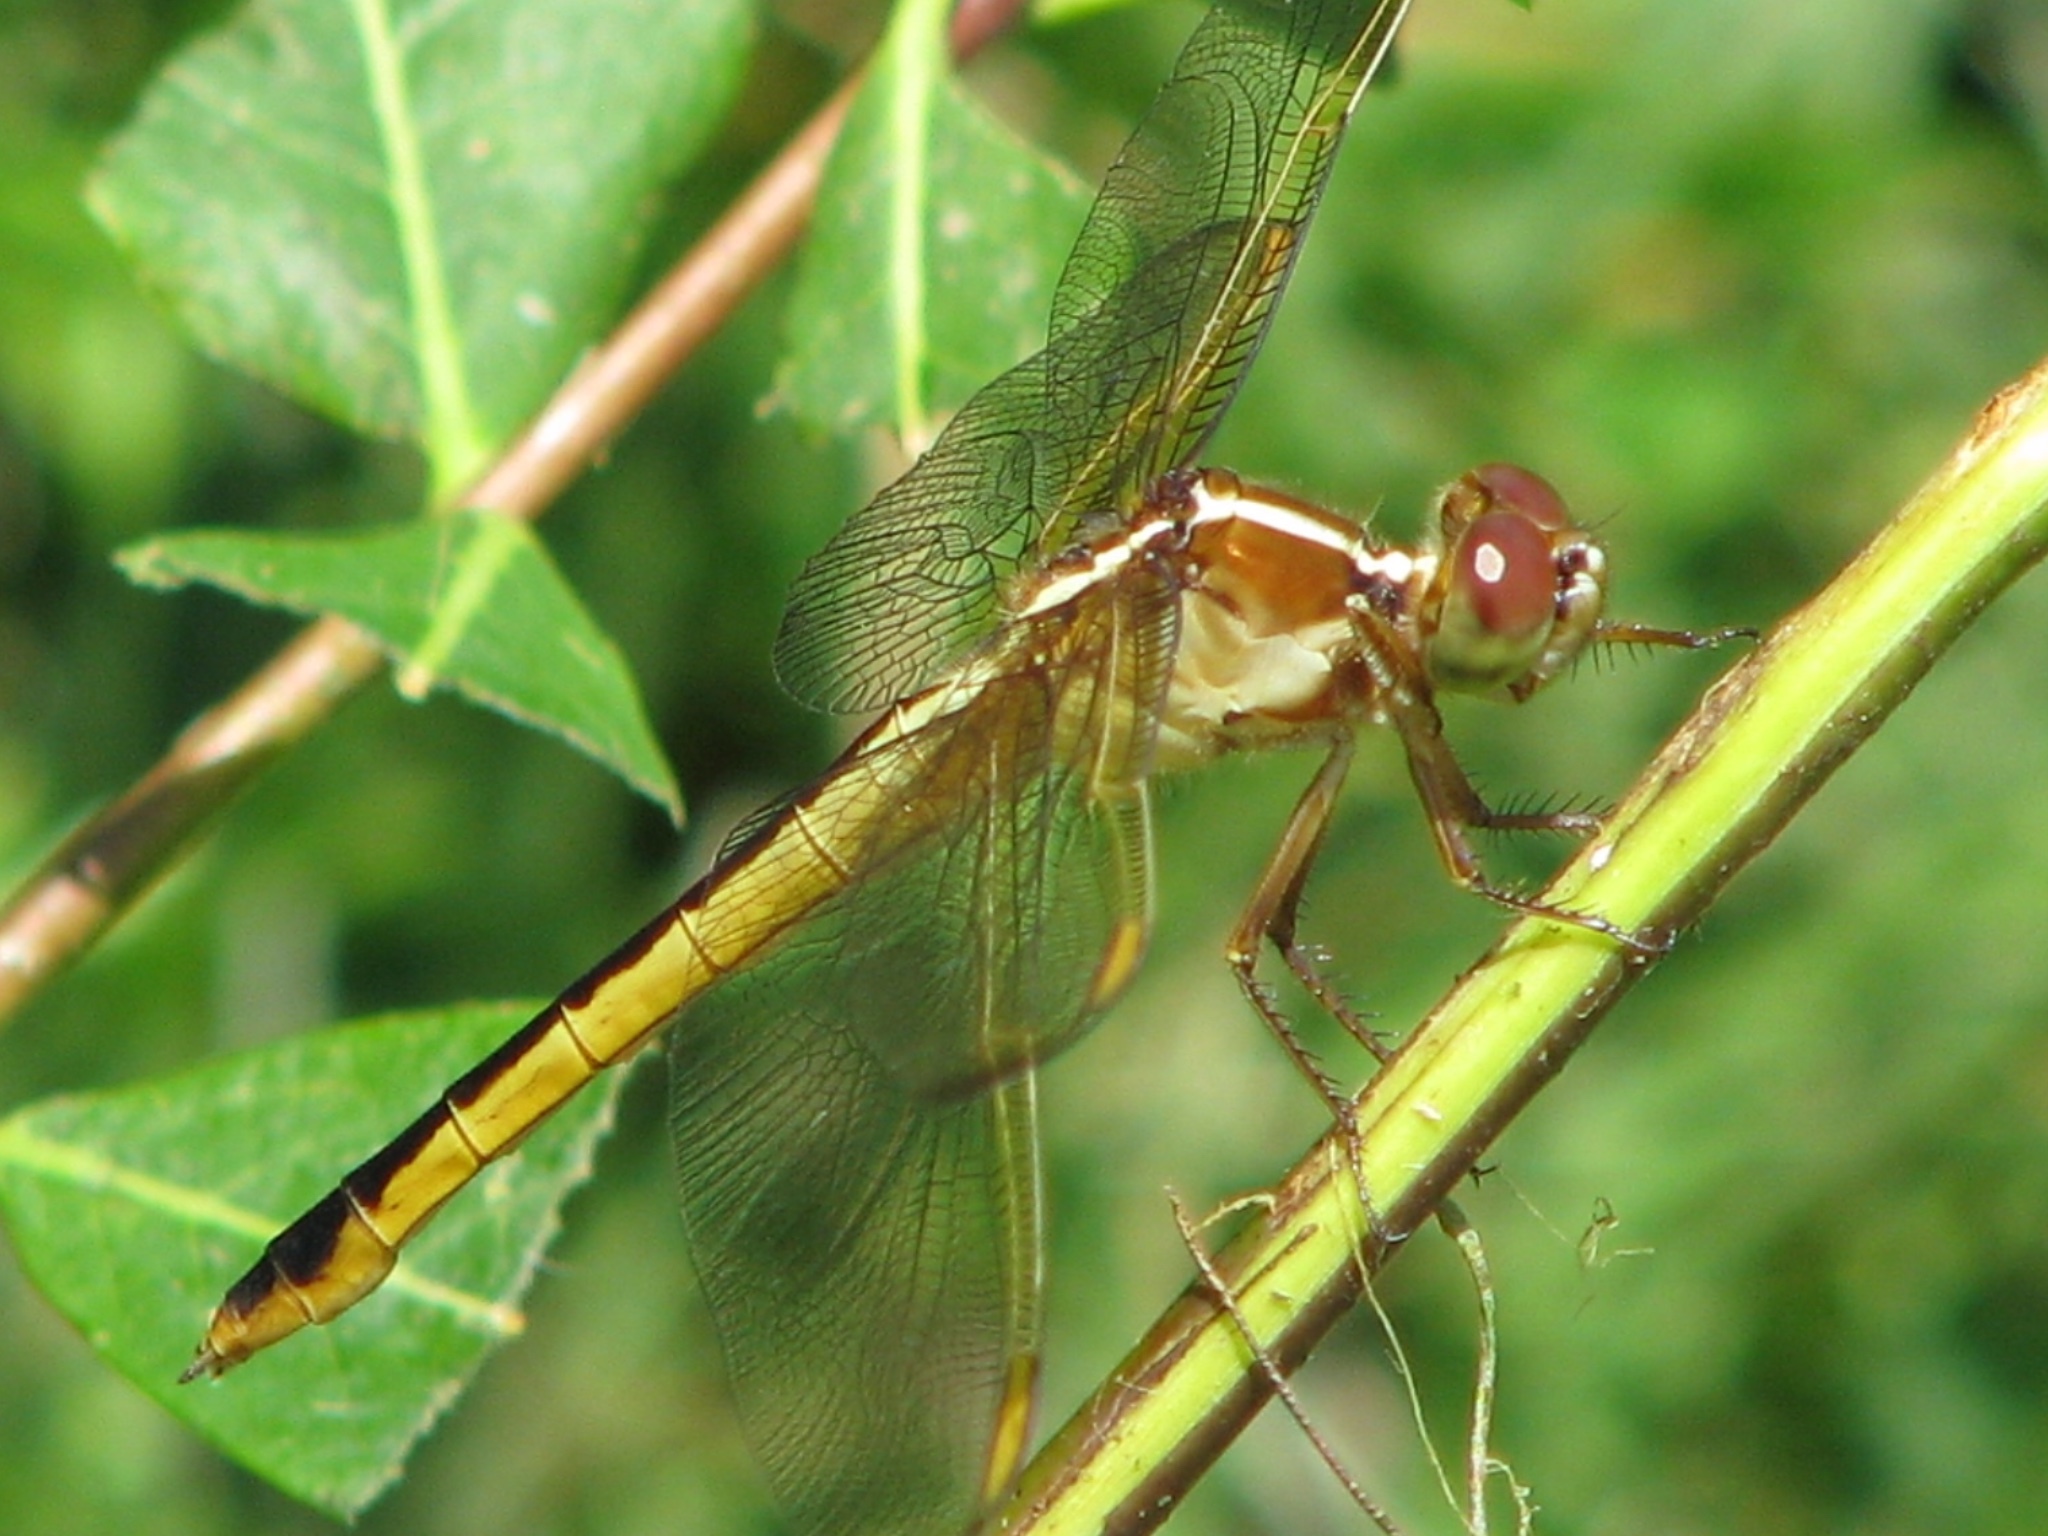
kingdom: Animalia
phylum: Arthropoda
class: Insecta
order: Odonata
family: Libellulidae
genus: Libellula
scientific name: Libellula needhami
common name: Needham's skimmer
